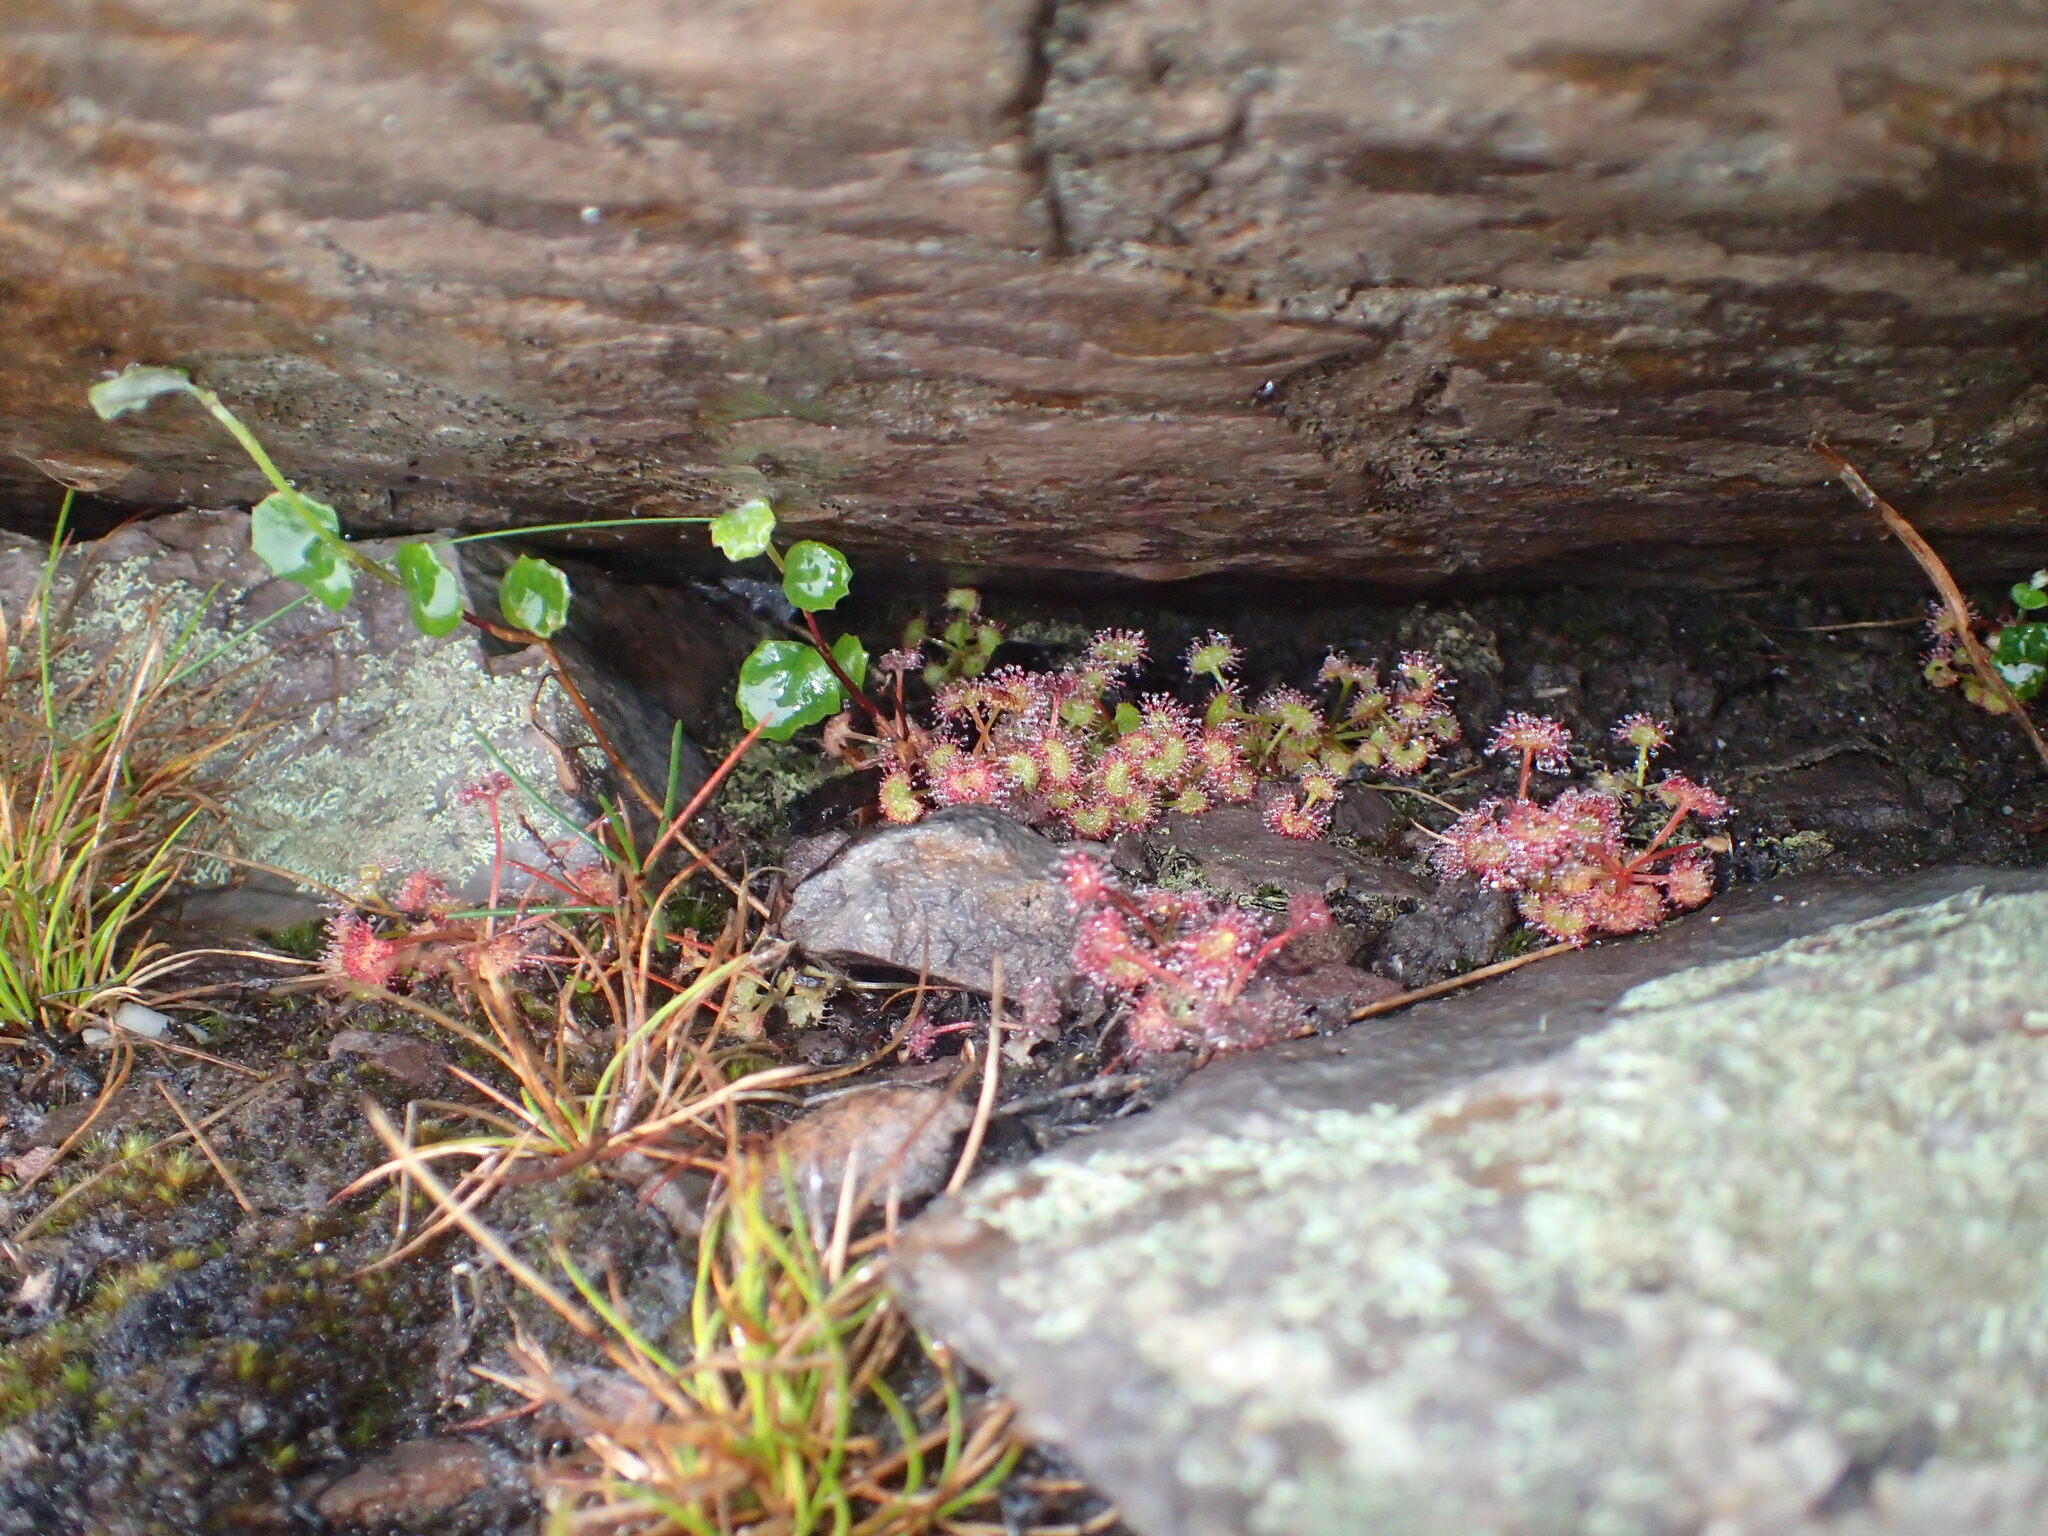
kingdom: Plantae
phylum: Tracheophyta
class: Magnoliopsida
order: Caryophyllales
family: Droseraceae
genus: Drosera
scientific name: Drosera monticola
